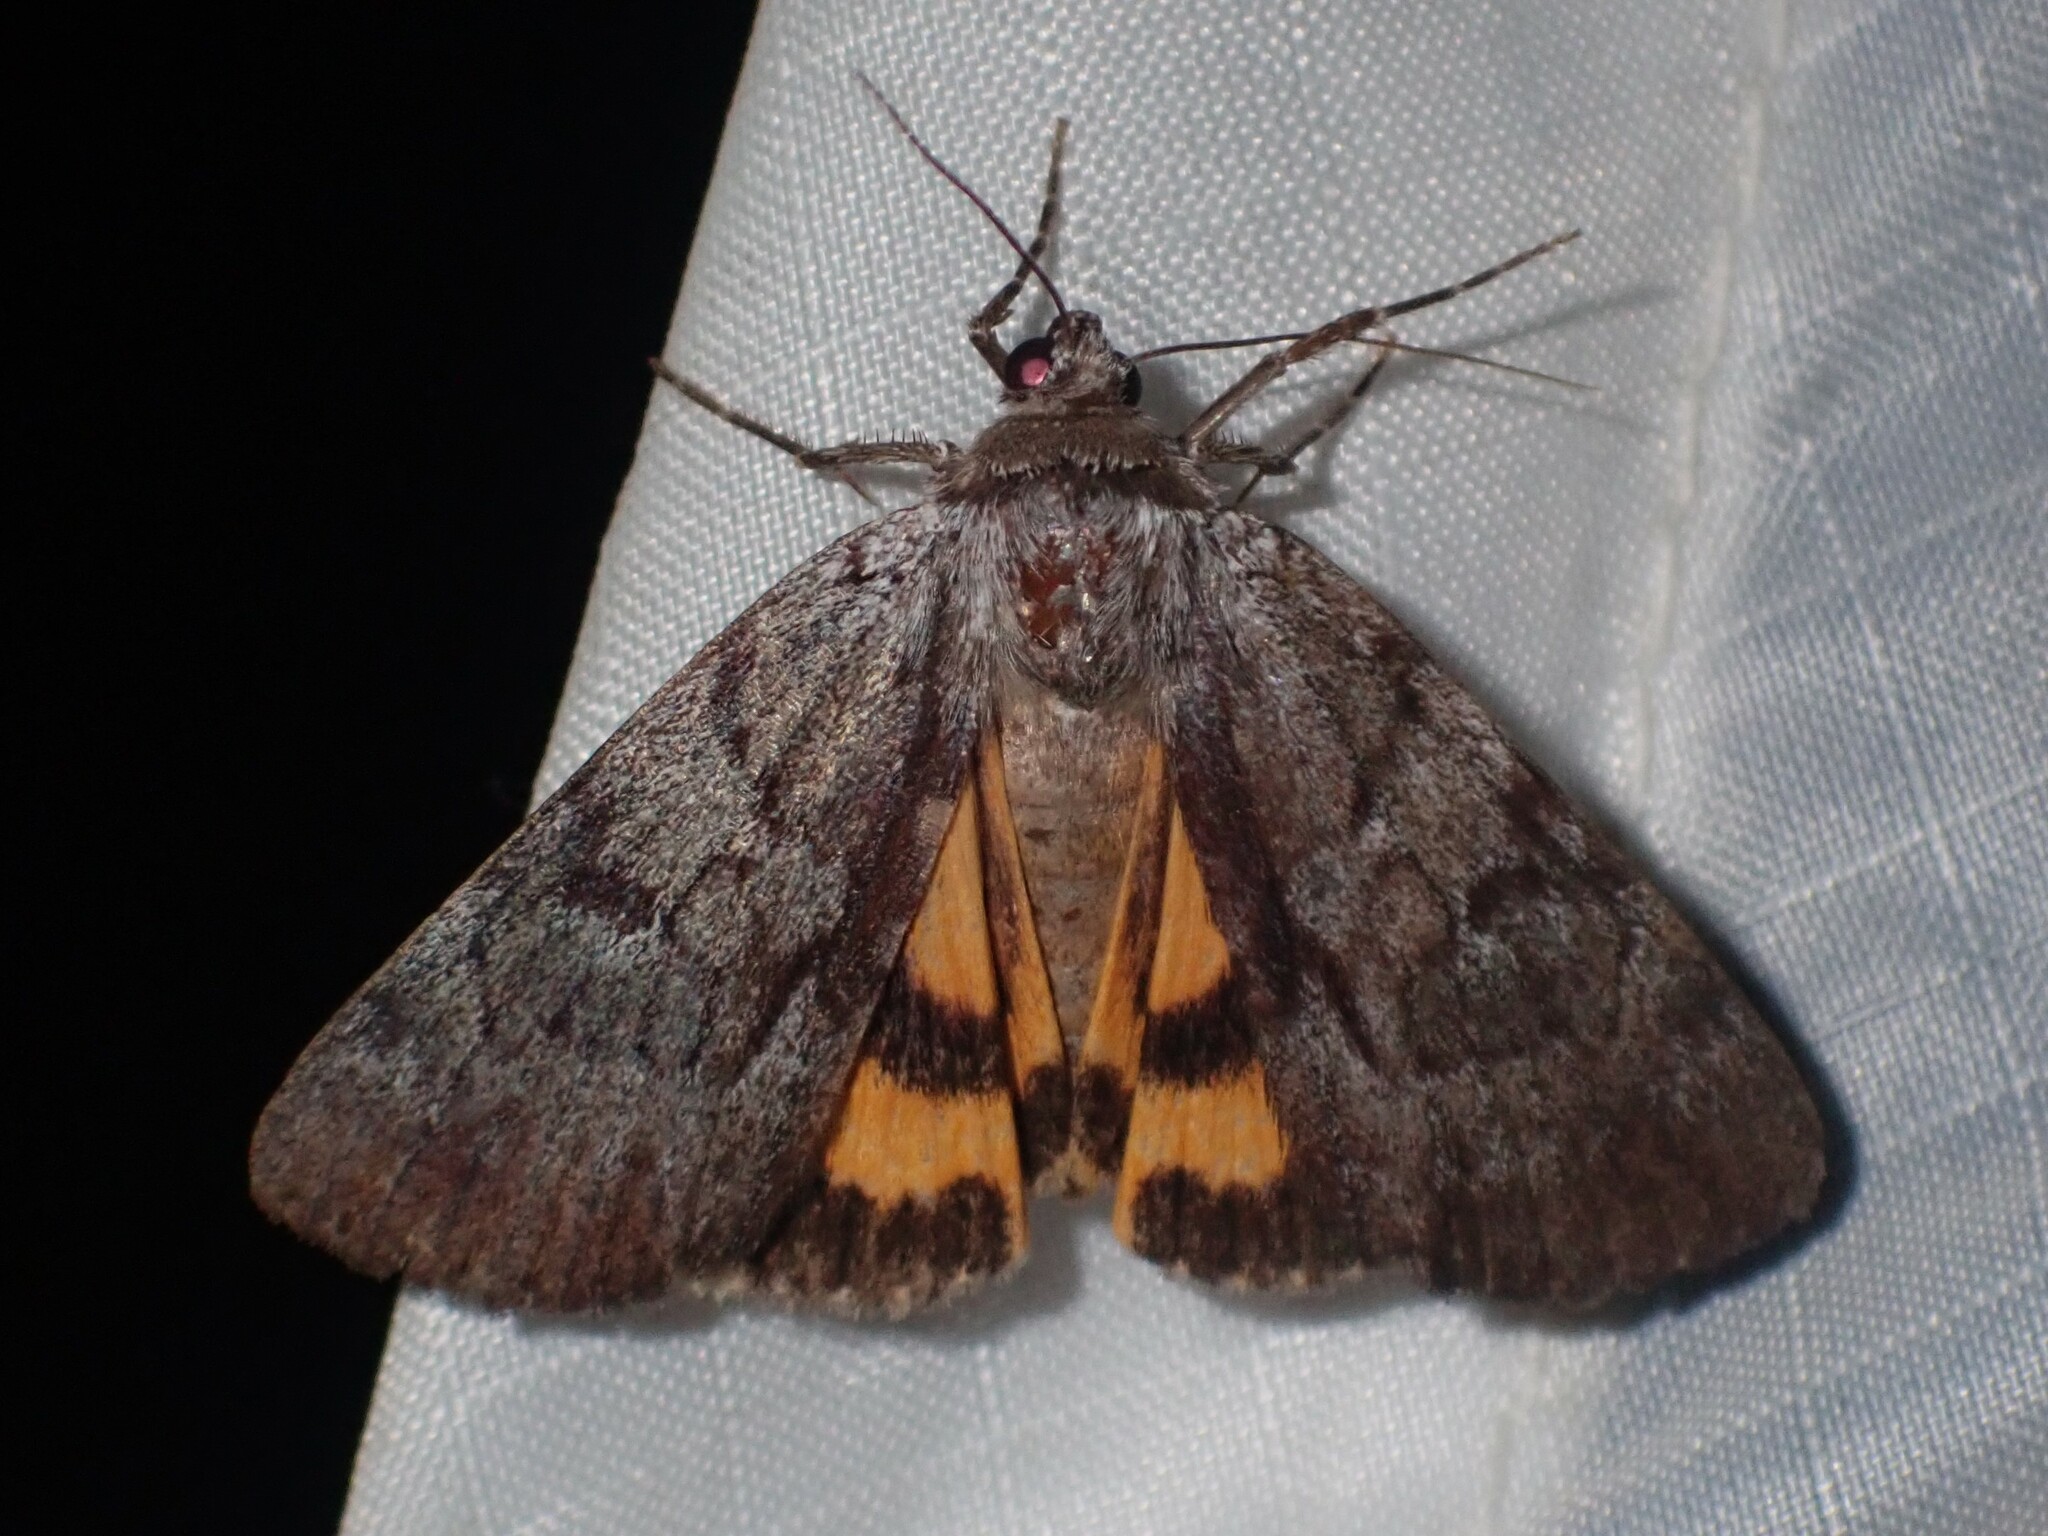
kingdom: Animalia
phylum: Arthropoda
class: Insecta
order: Lepidoptera
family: Erebidae
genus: Catocala
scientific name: Catocala sordida
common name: Sordid underwing
